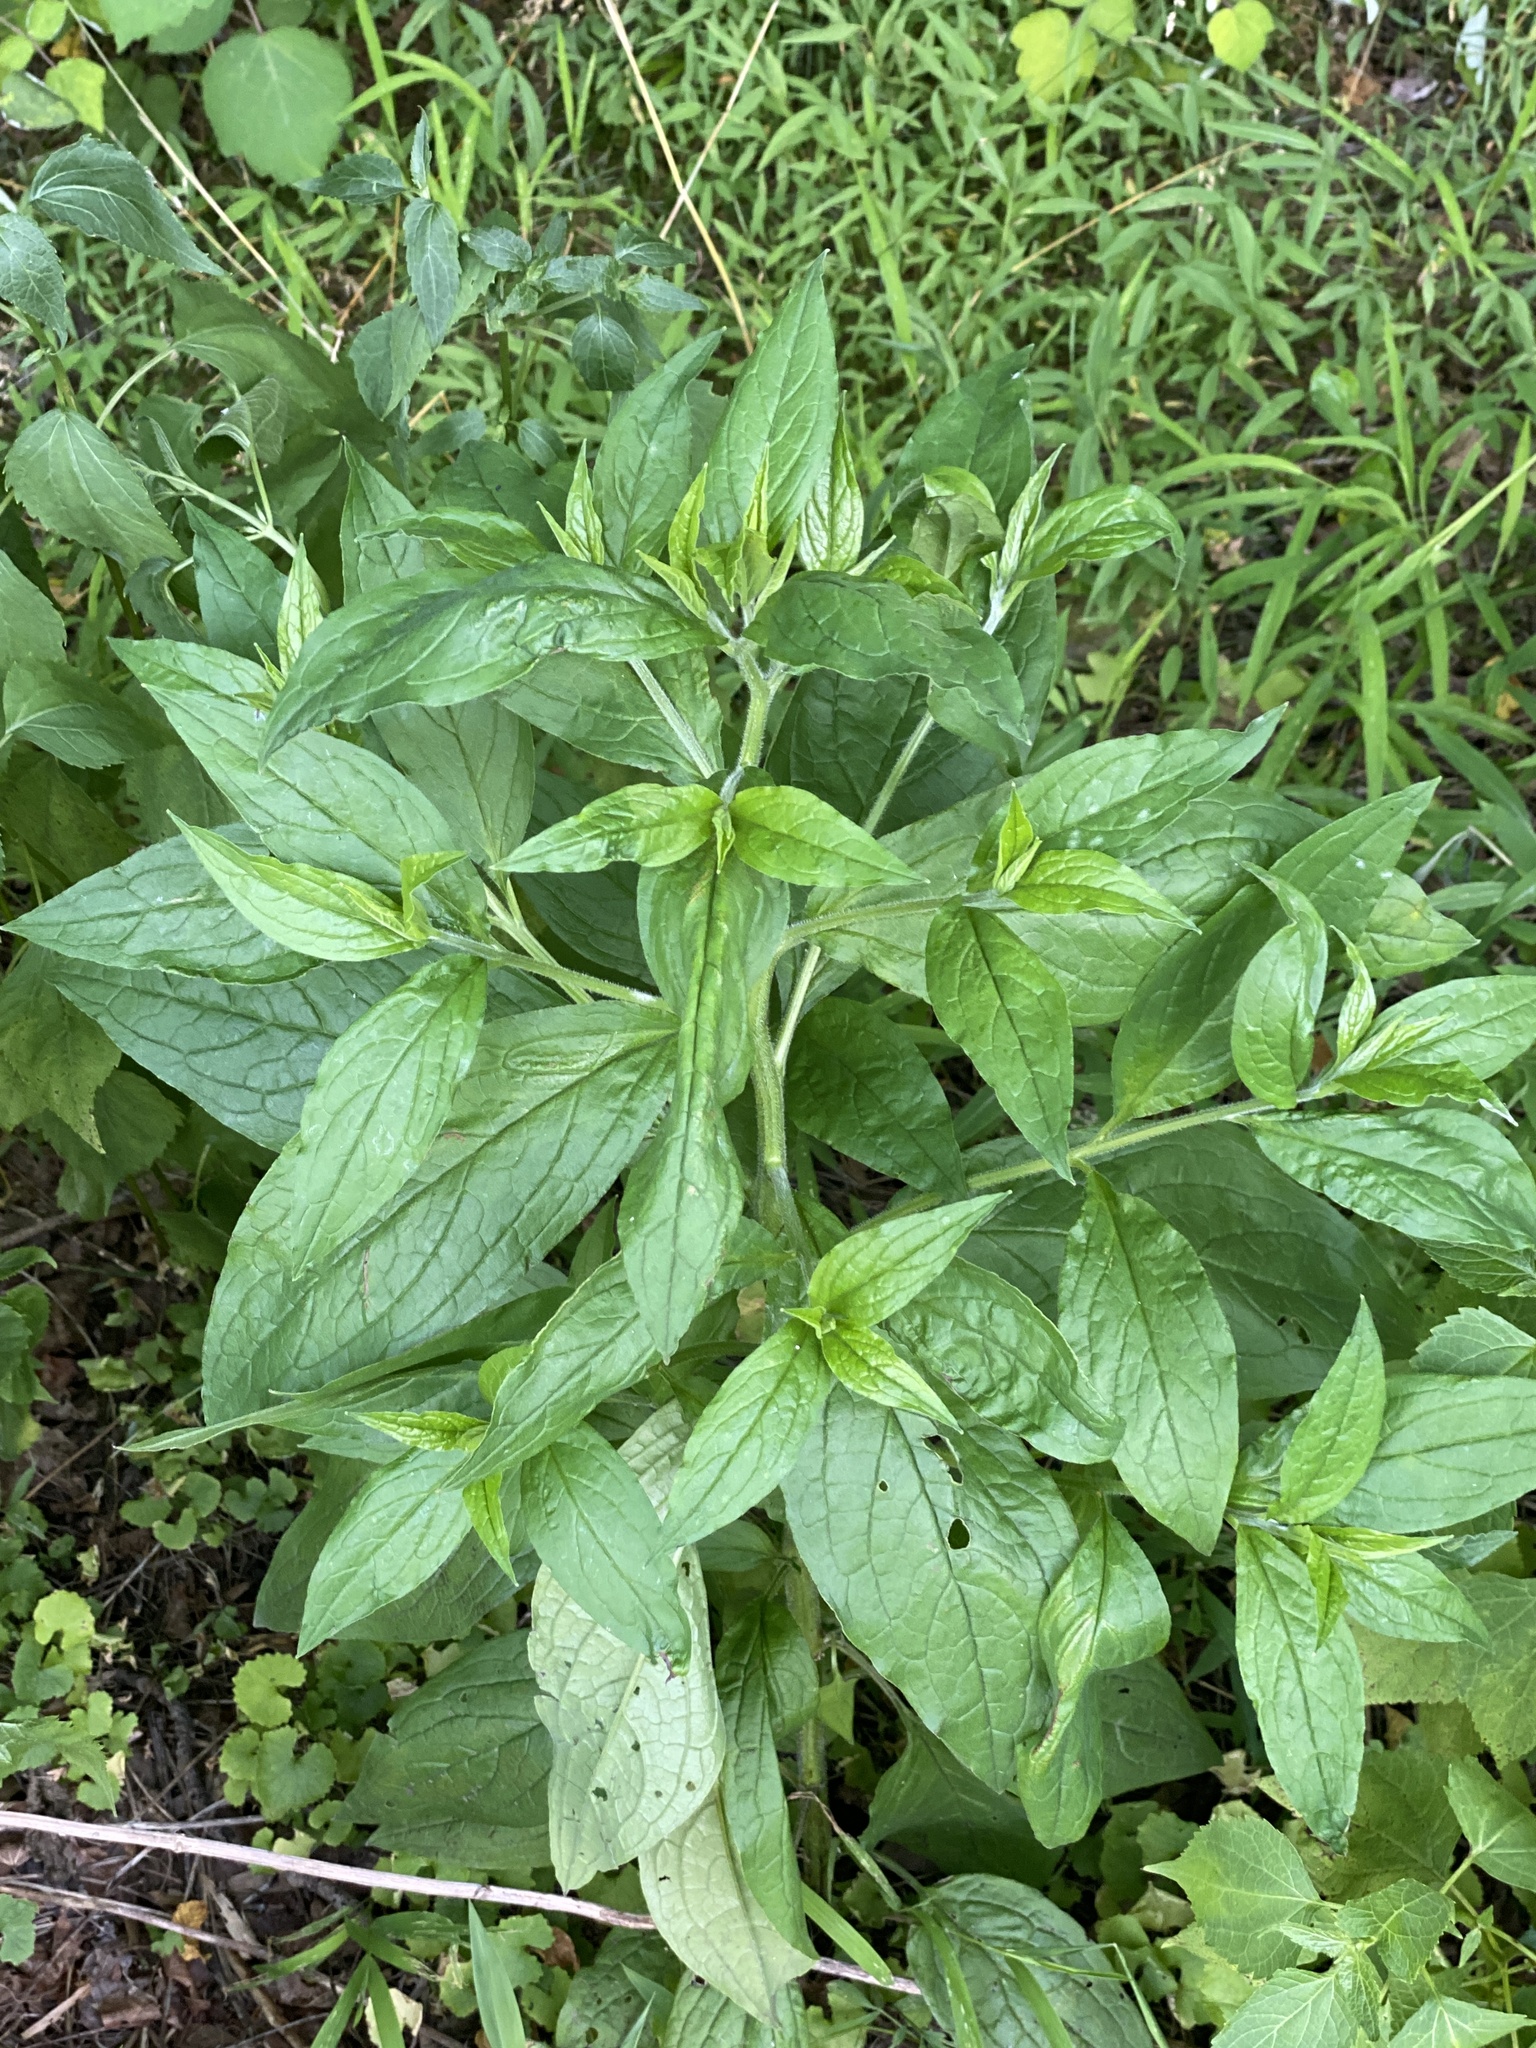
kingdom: Plantae
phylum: Tracheophyta
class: Magnoliopsida
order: Boraginales
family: Boraginaceae
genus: Hackelia
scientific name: Hackelia virginiana
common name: Beggar's-lice
